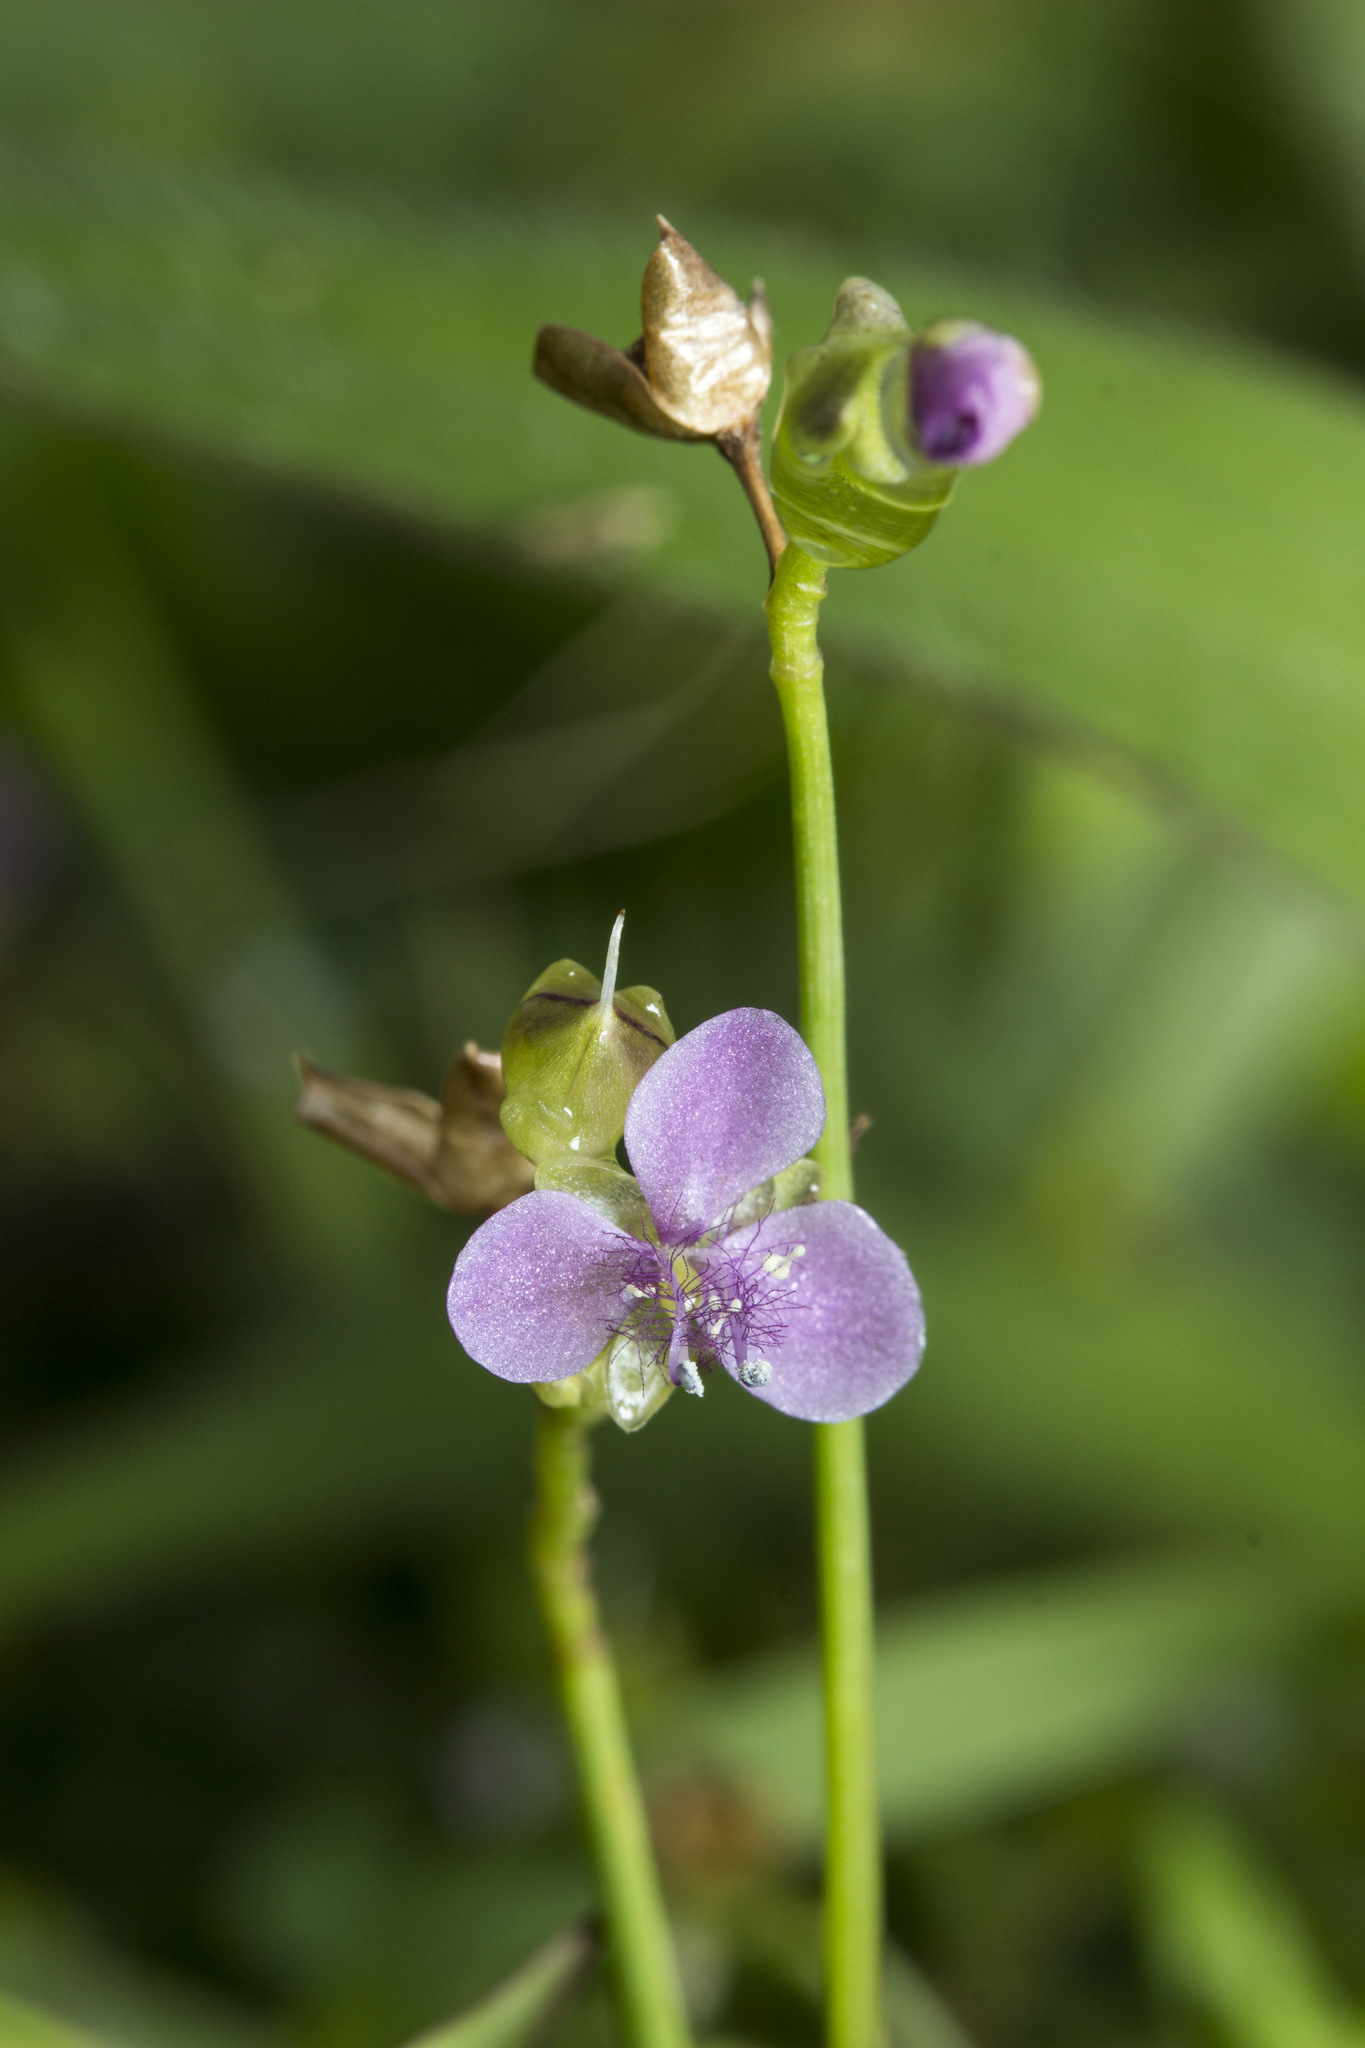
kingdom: Plantae
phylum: Tracheophyta
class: Liliopsida
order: Commelinales
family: Commelinaceae
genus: Murdannia
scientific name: Murdannia nudiflora
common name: Nakedstem dewflower
